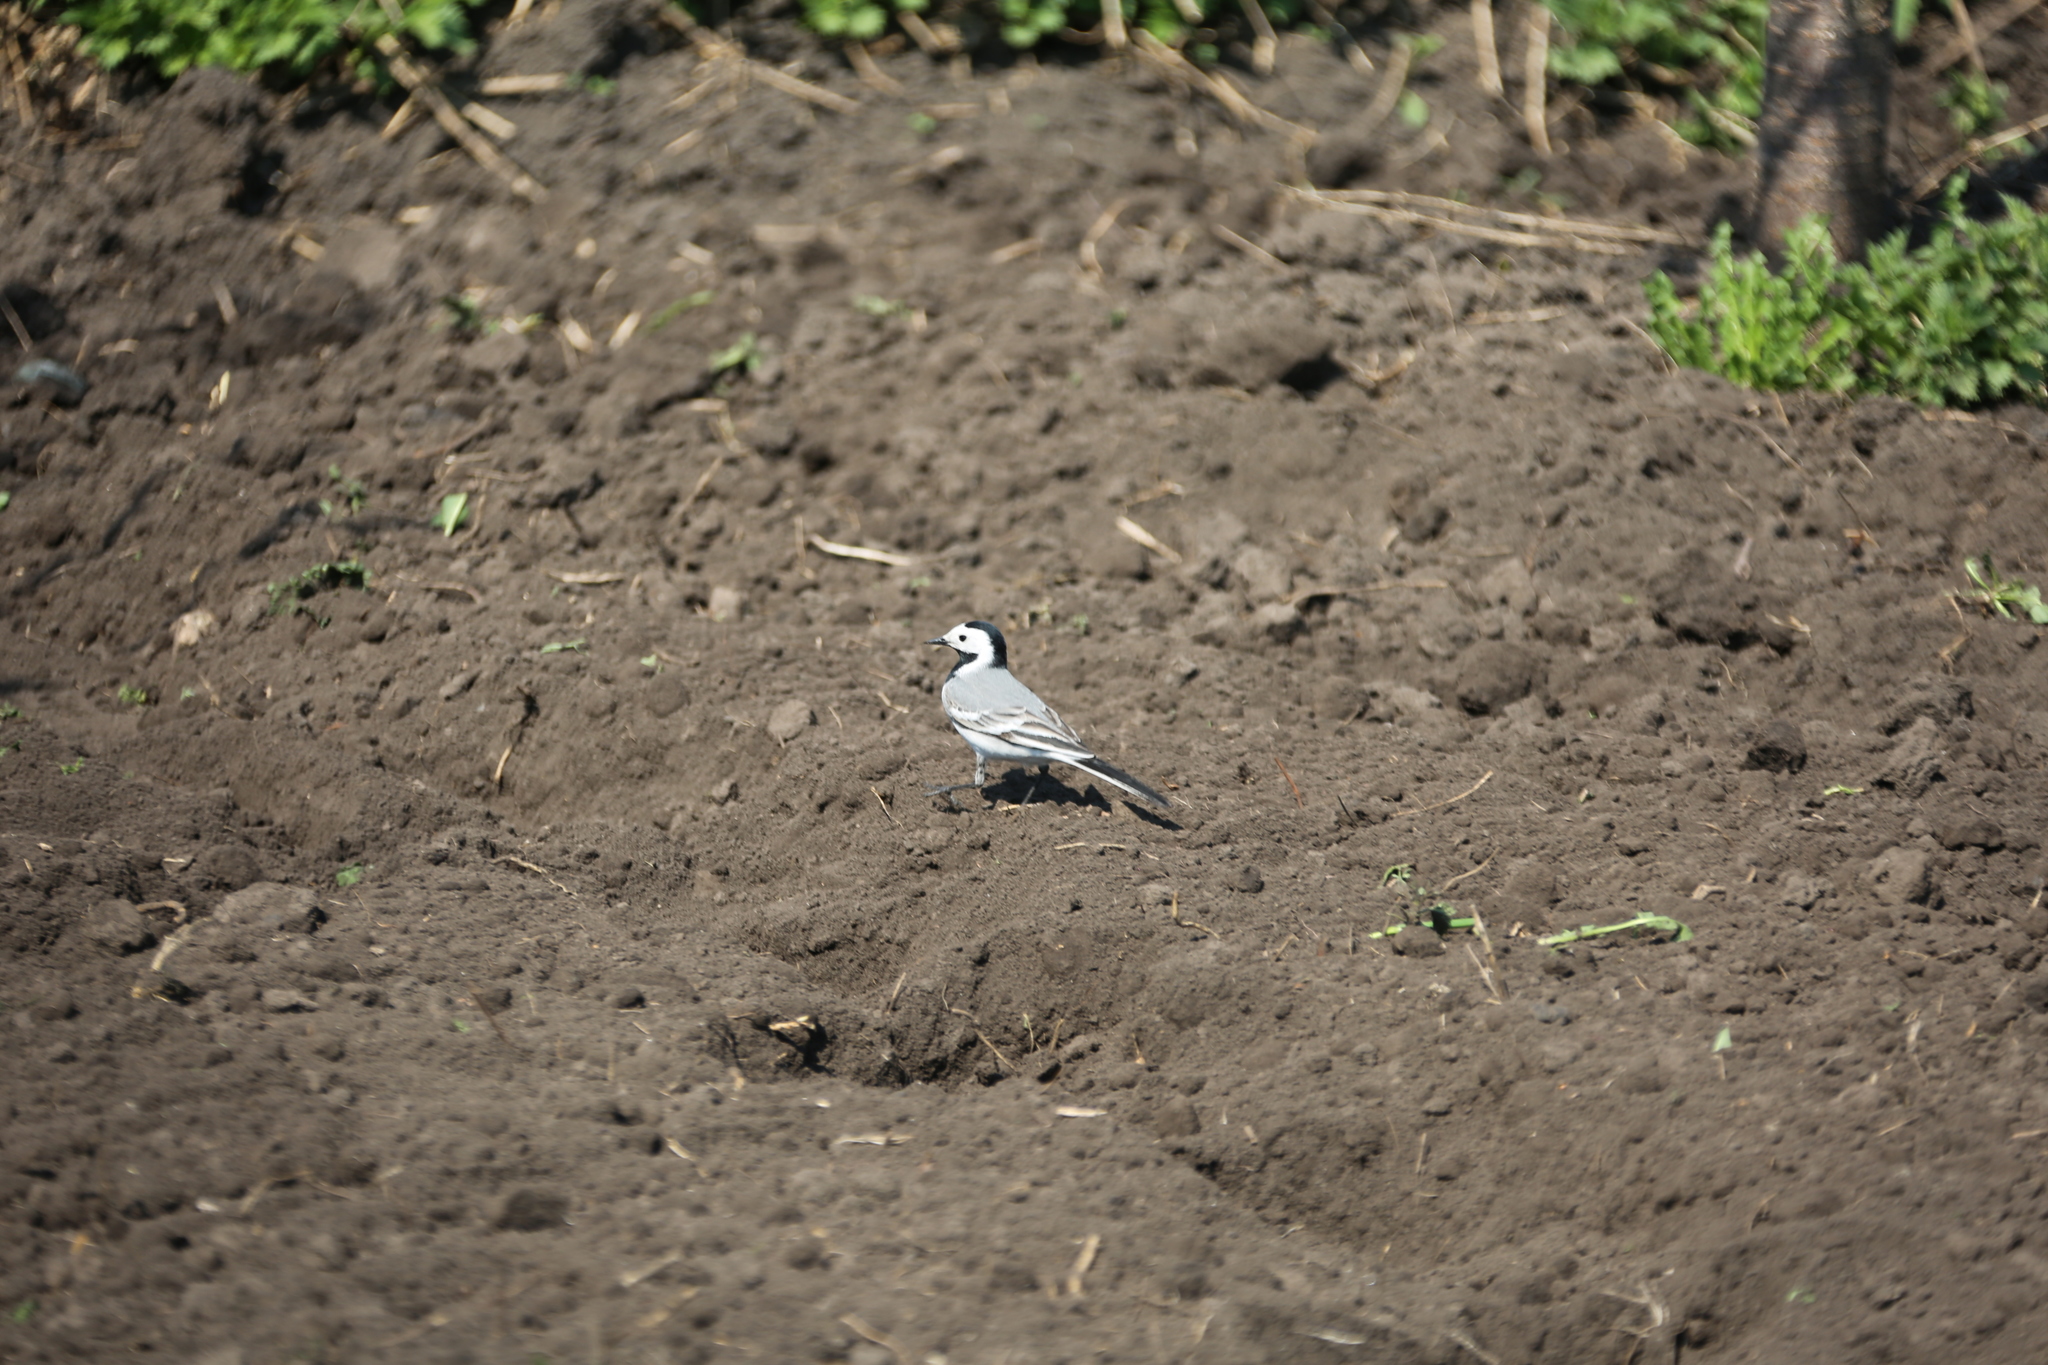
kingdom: Animalia
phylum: Chordata
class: Aves
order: Passeriformes
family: Motacillidae
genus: Motacilla
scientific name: Motacilla alba
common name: White wagtail
